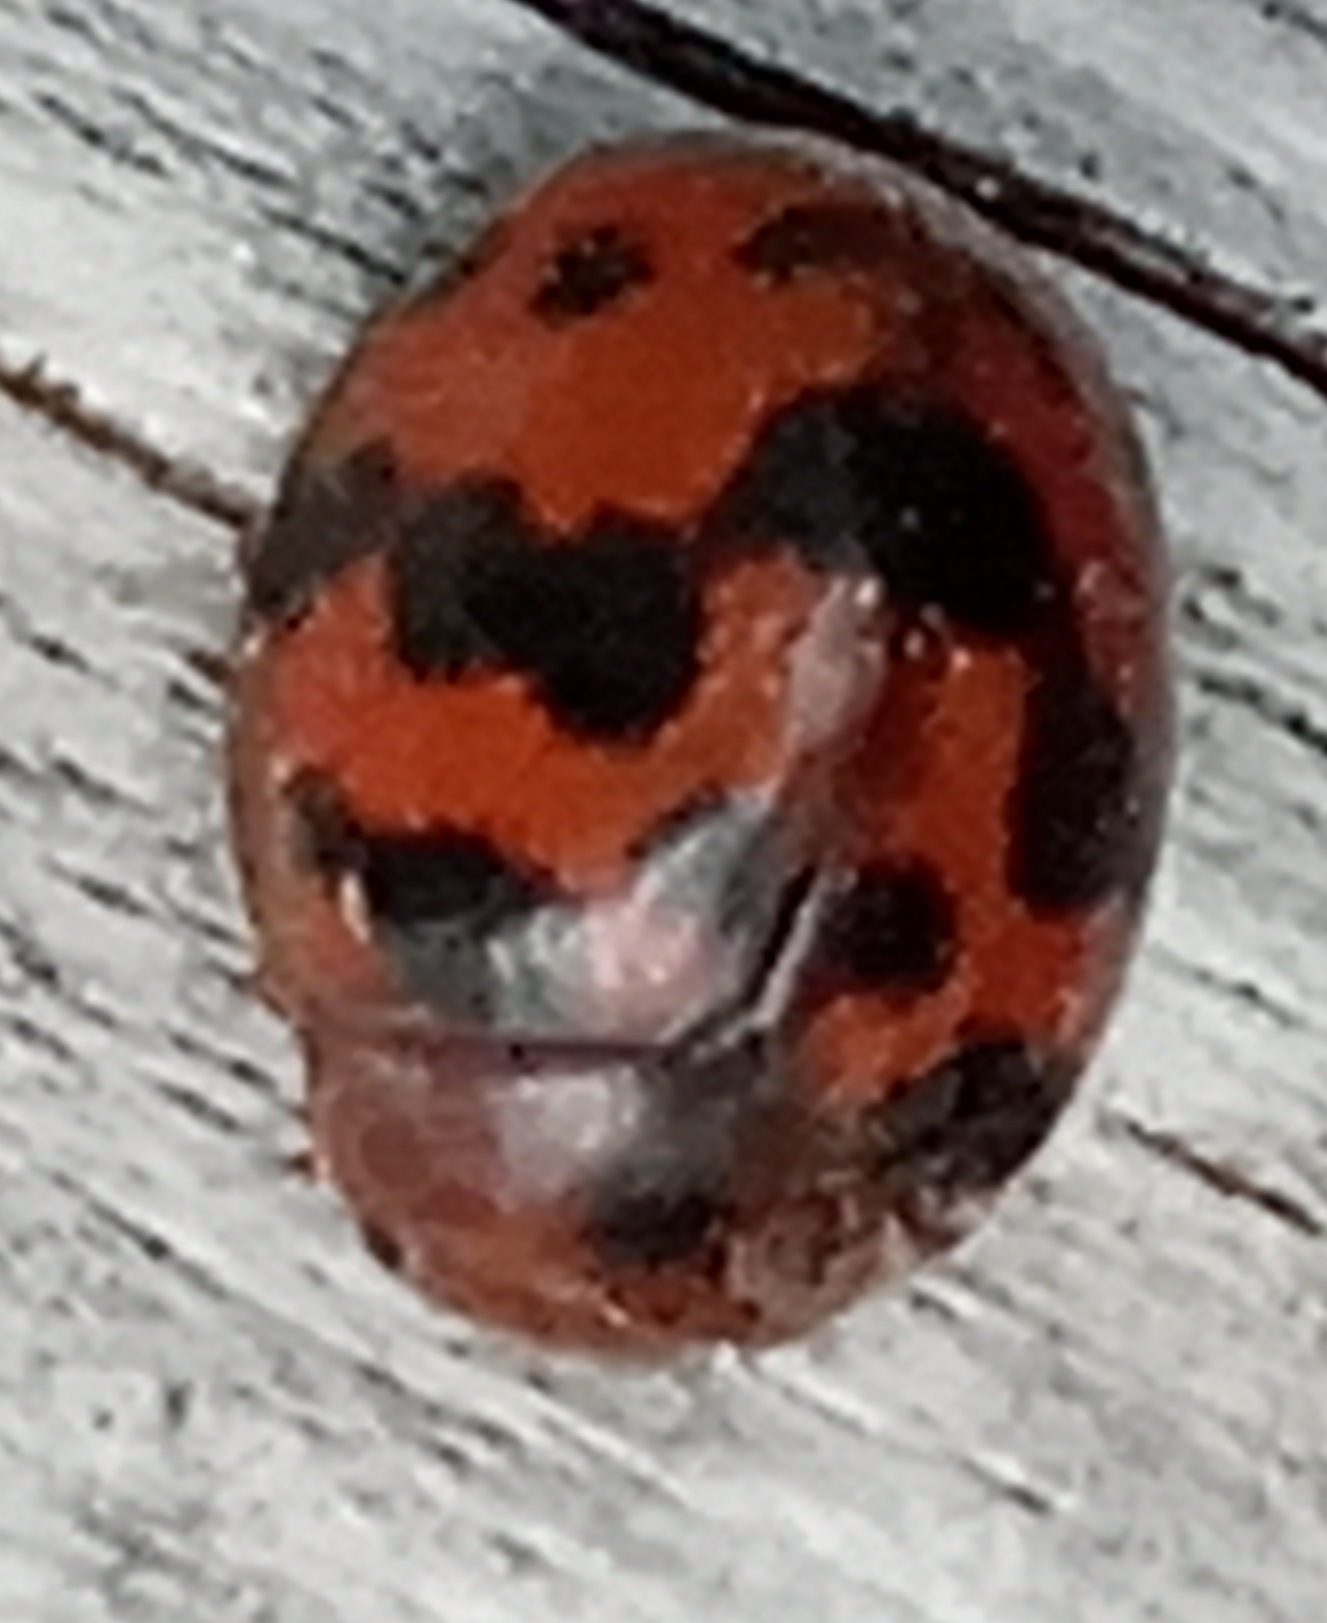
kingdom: Animalia
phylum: Arthropoda
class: Insecta
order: Coleoptera
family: Coccinellidae
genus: Subcoccinella
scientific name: Subcoccinella vigintiquatuorpunctata
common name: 24-spot ladybird
